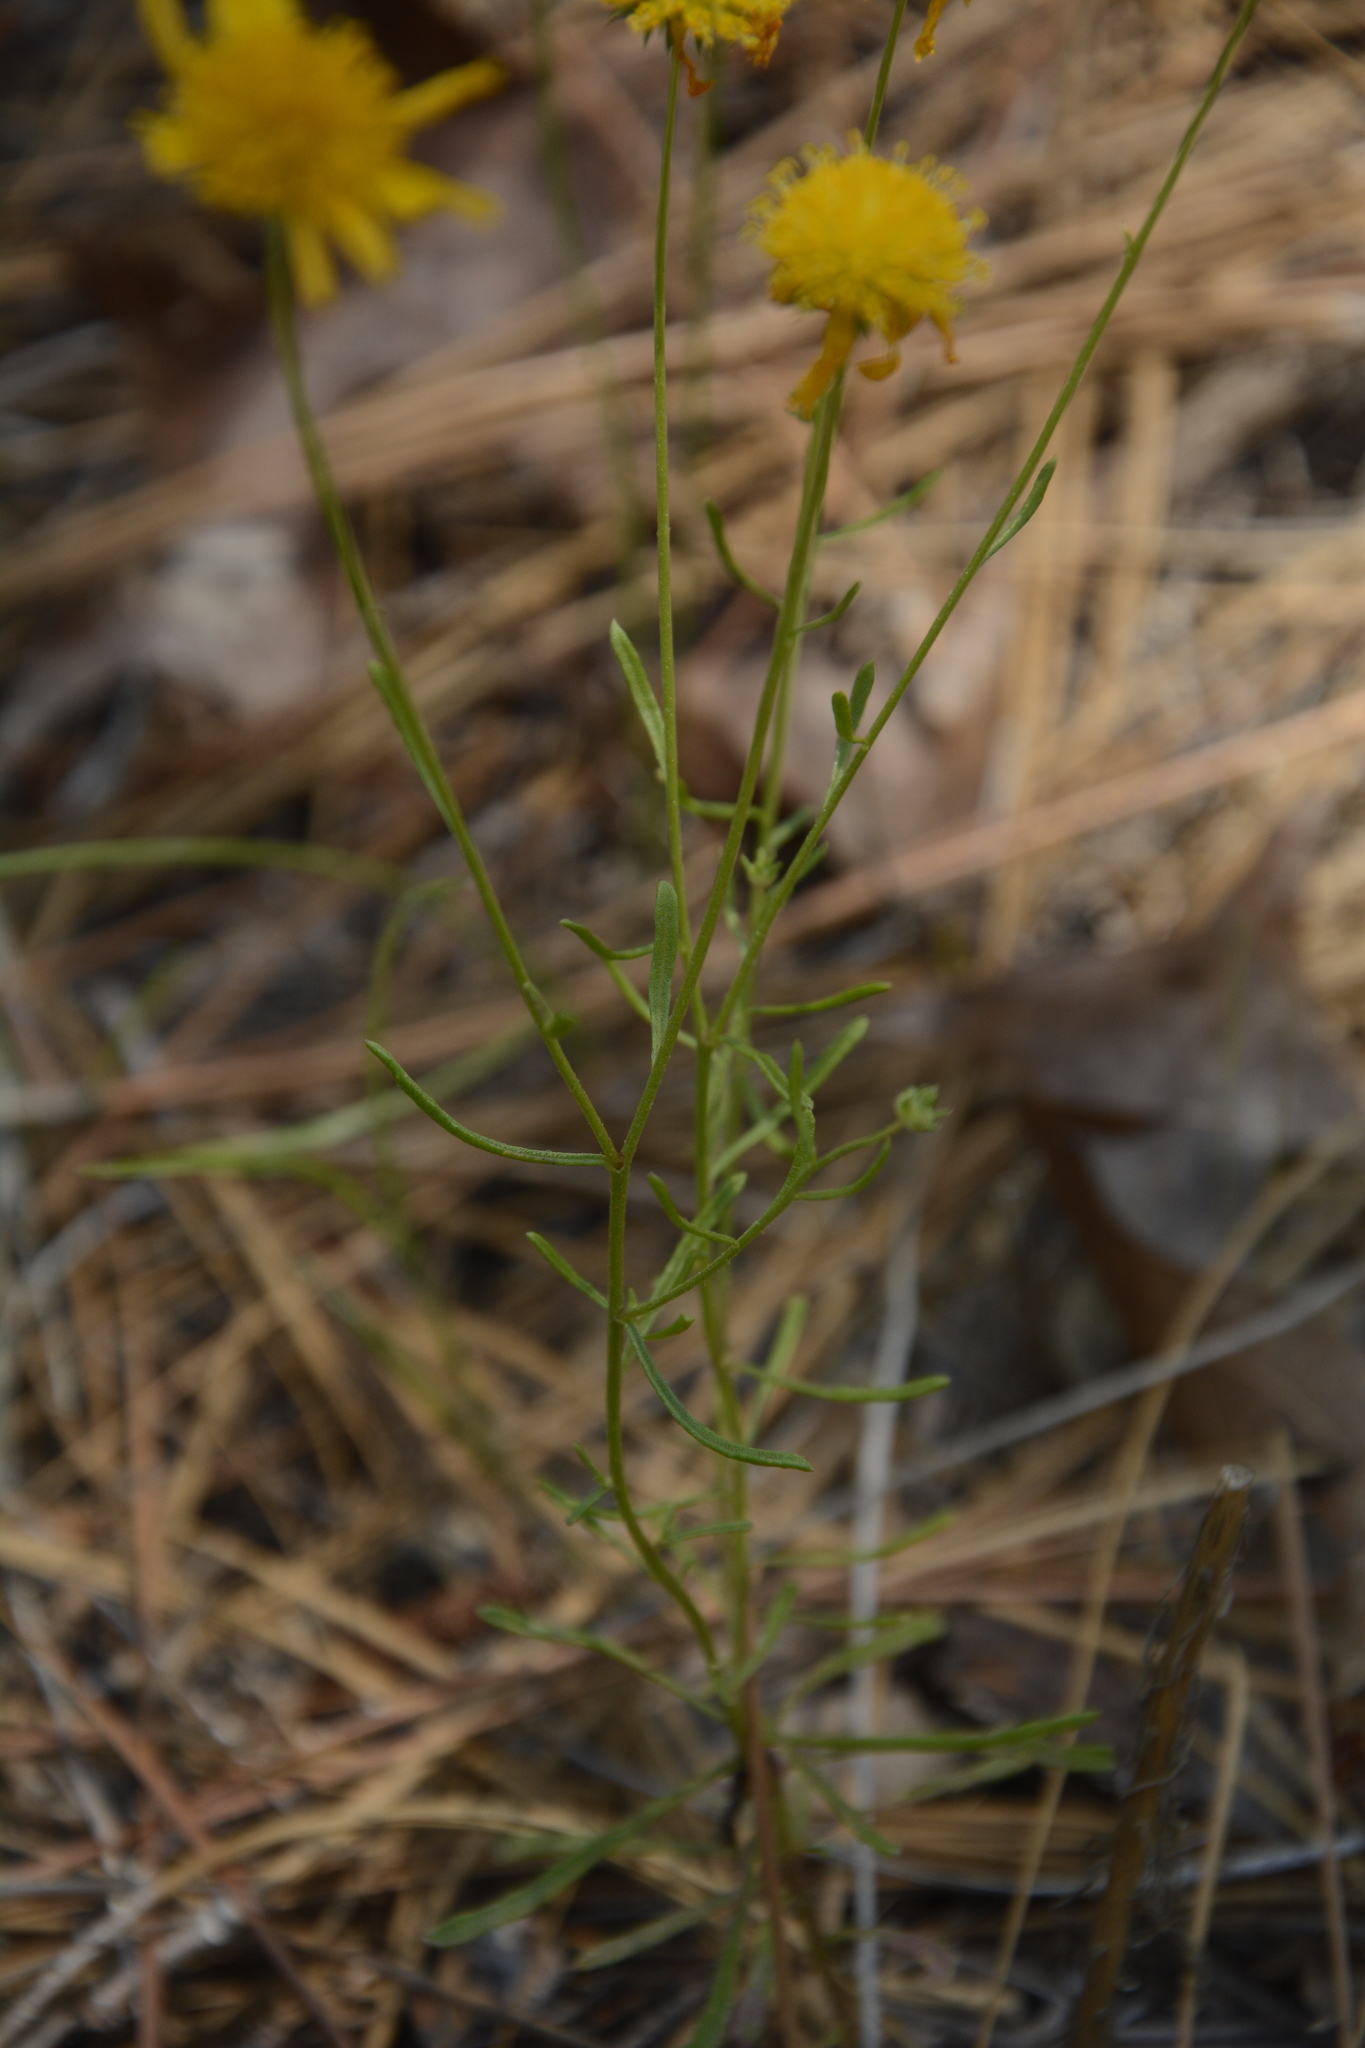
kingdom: Plantae
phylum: Tracheophyta
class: Magnoliopsida
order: Asterales
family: Asteraceae
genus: Balduina
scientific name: Balduina angustifolia
